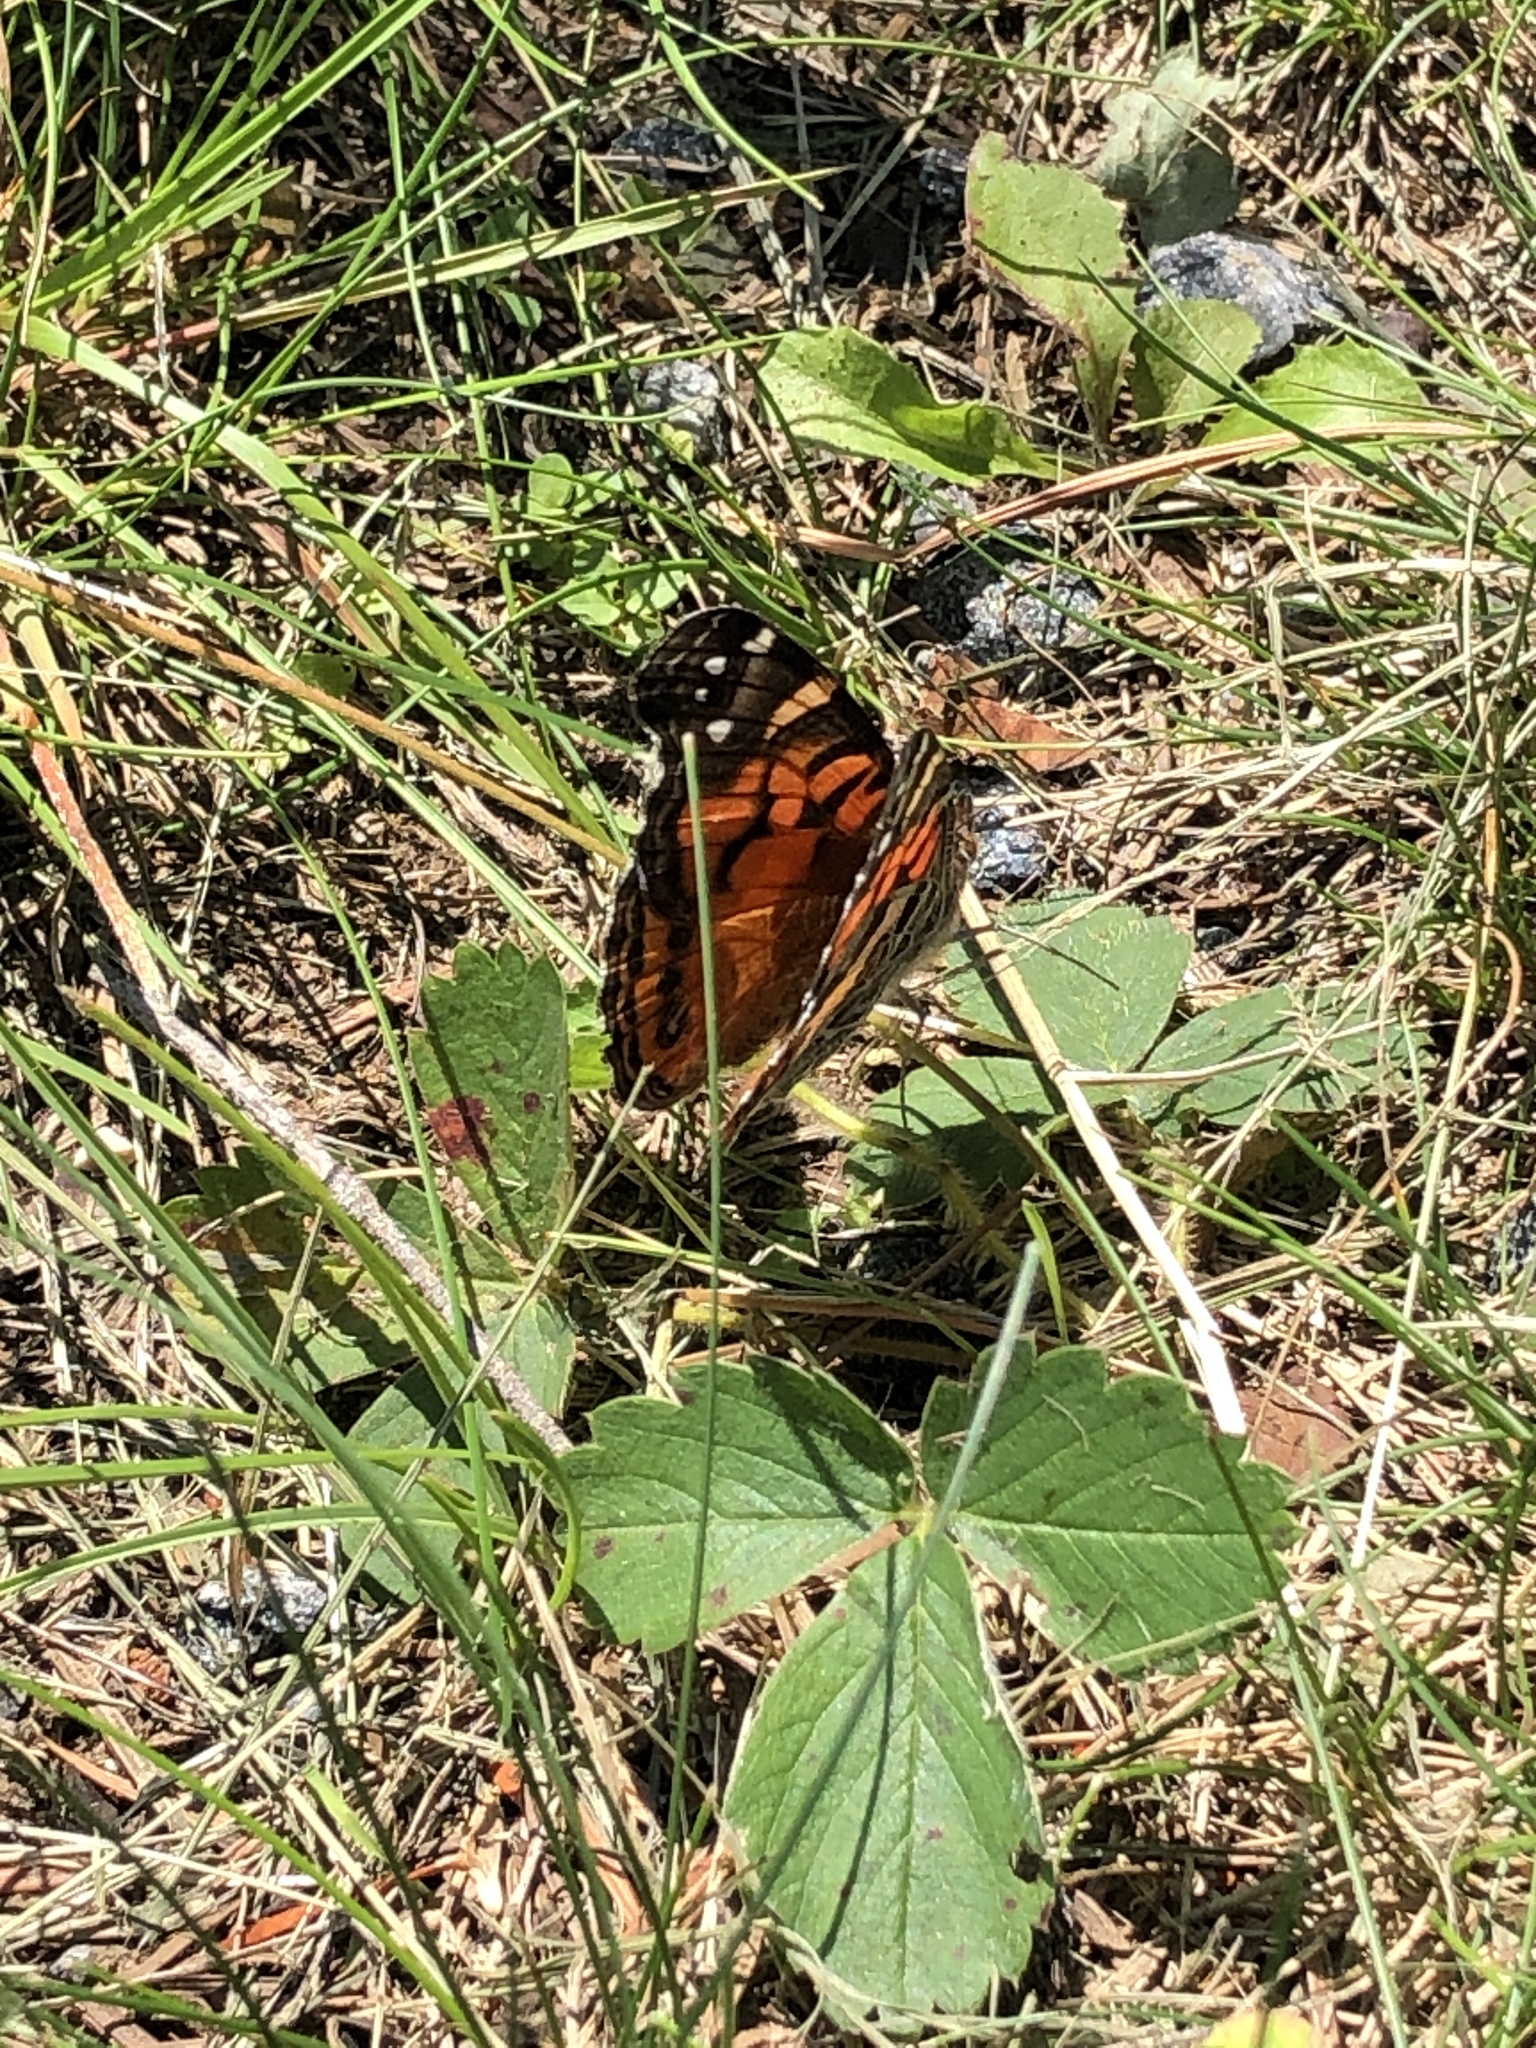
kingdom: Animalia
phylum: Arthropoda
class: Insecta
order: Lepidoptera
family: Nymphalidae
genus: Vanessa
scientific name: Vanessa virginiensis
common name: American lady
